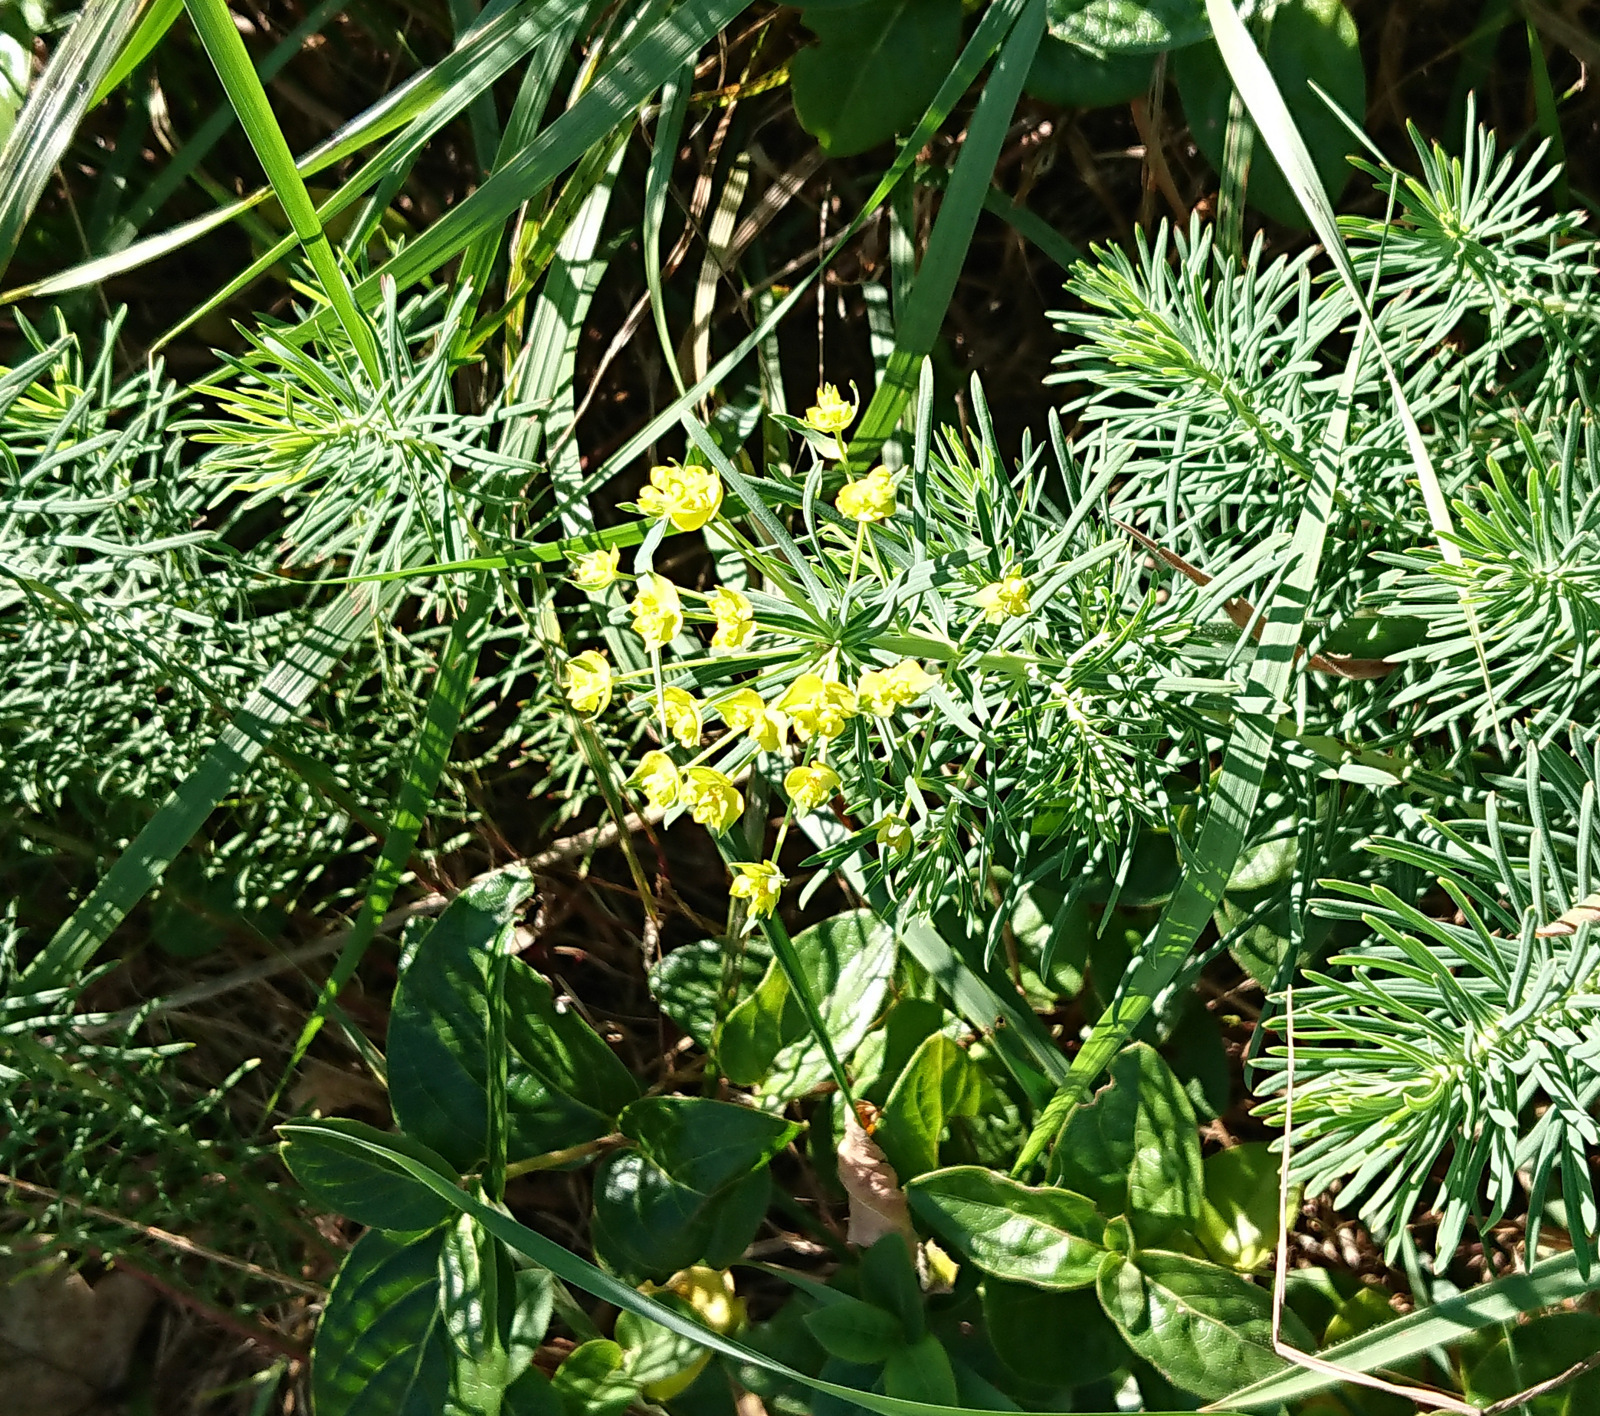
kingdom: Plantae
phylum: Tracheophyta
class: Magnoliopsida
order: Malpighiales
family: Euphorbiaceae
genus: Euphorbia
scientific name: Euphorbia cyparissias
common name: Cypress spurge
